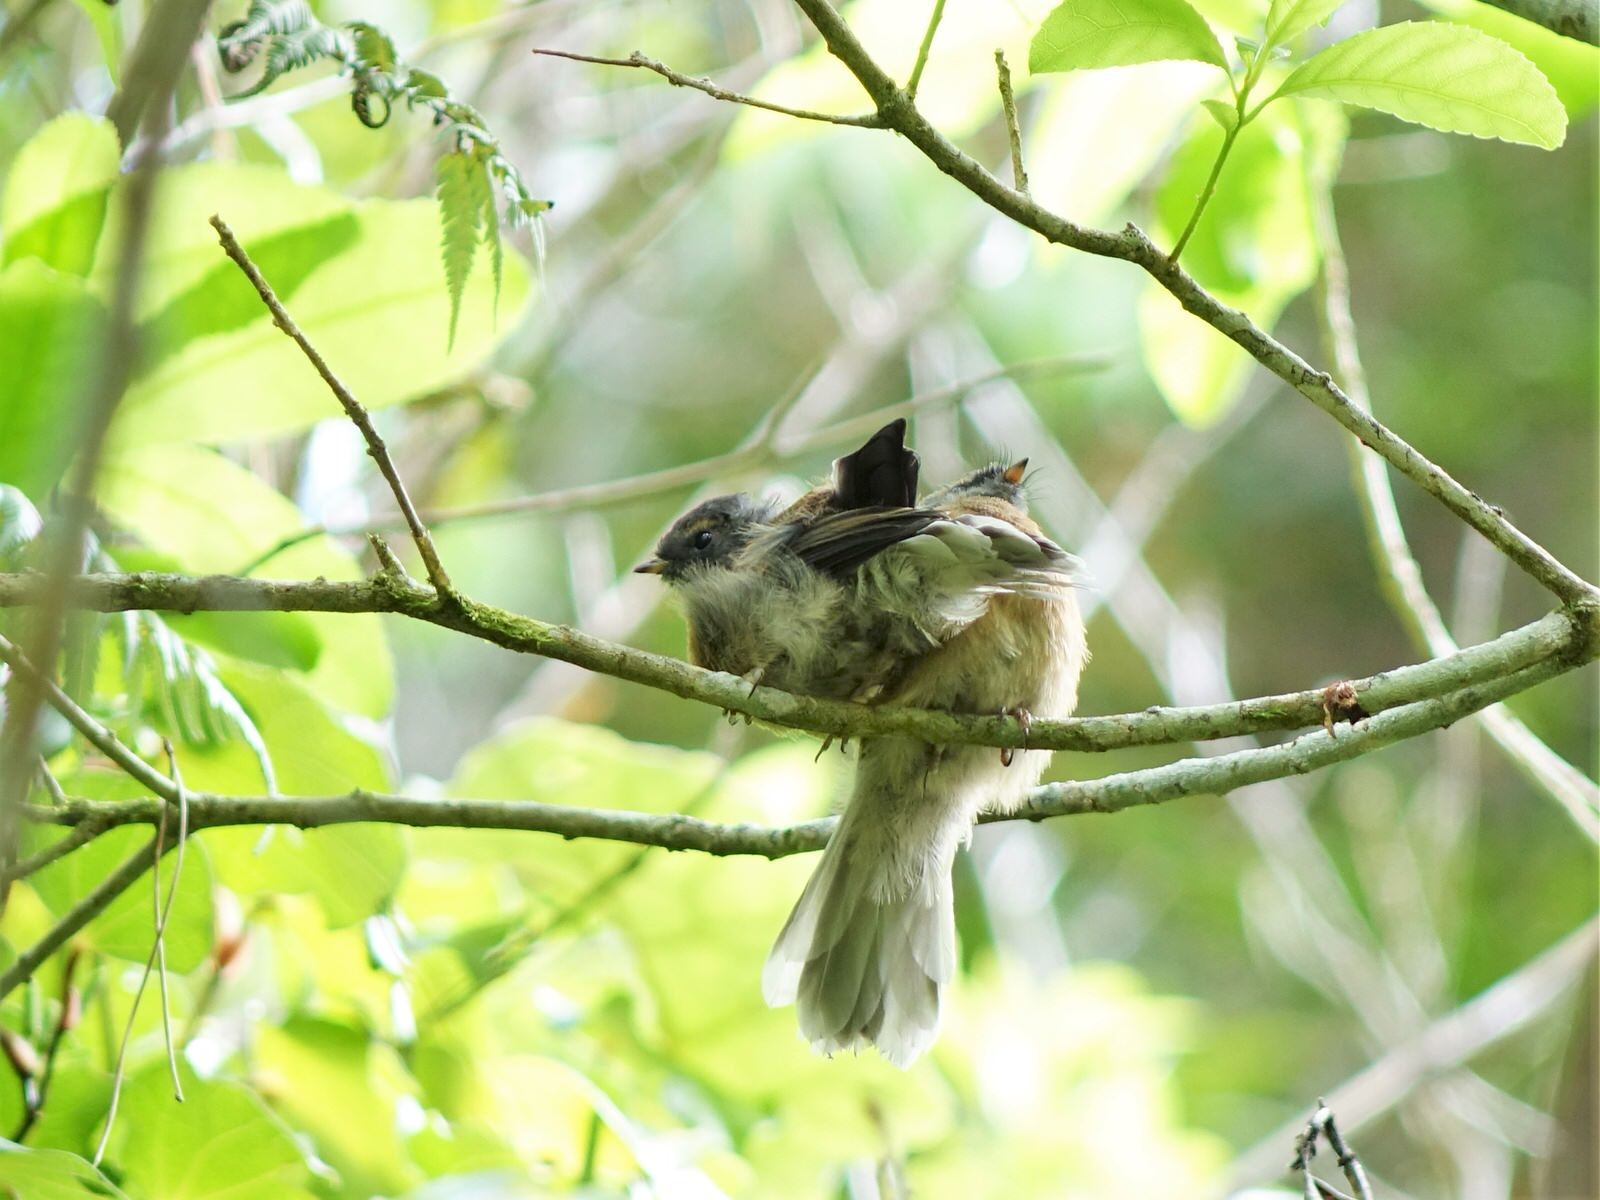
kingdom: Animalia
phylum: Chordata
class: Aves
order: Passeriformes
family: Rhipiduridae
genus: Rhipidura
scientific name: Rhipidura fuliginosa
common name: New zealand fantail
